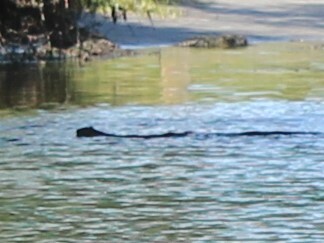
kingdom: Animalia
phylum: Chordata
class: Mammalia
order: Rodentia
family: Cricetidae
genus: Ondatra
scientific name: Ondatra zibethicus
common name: Muskrat
